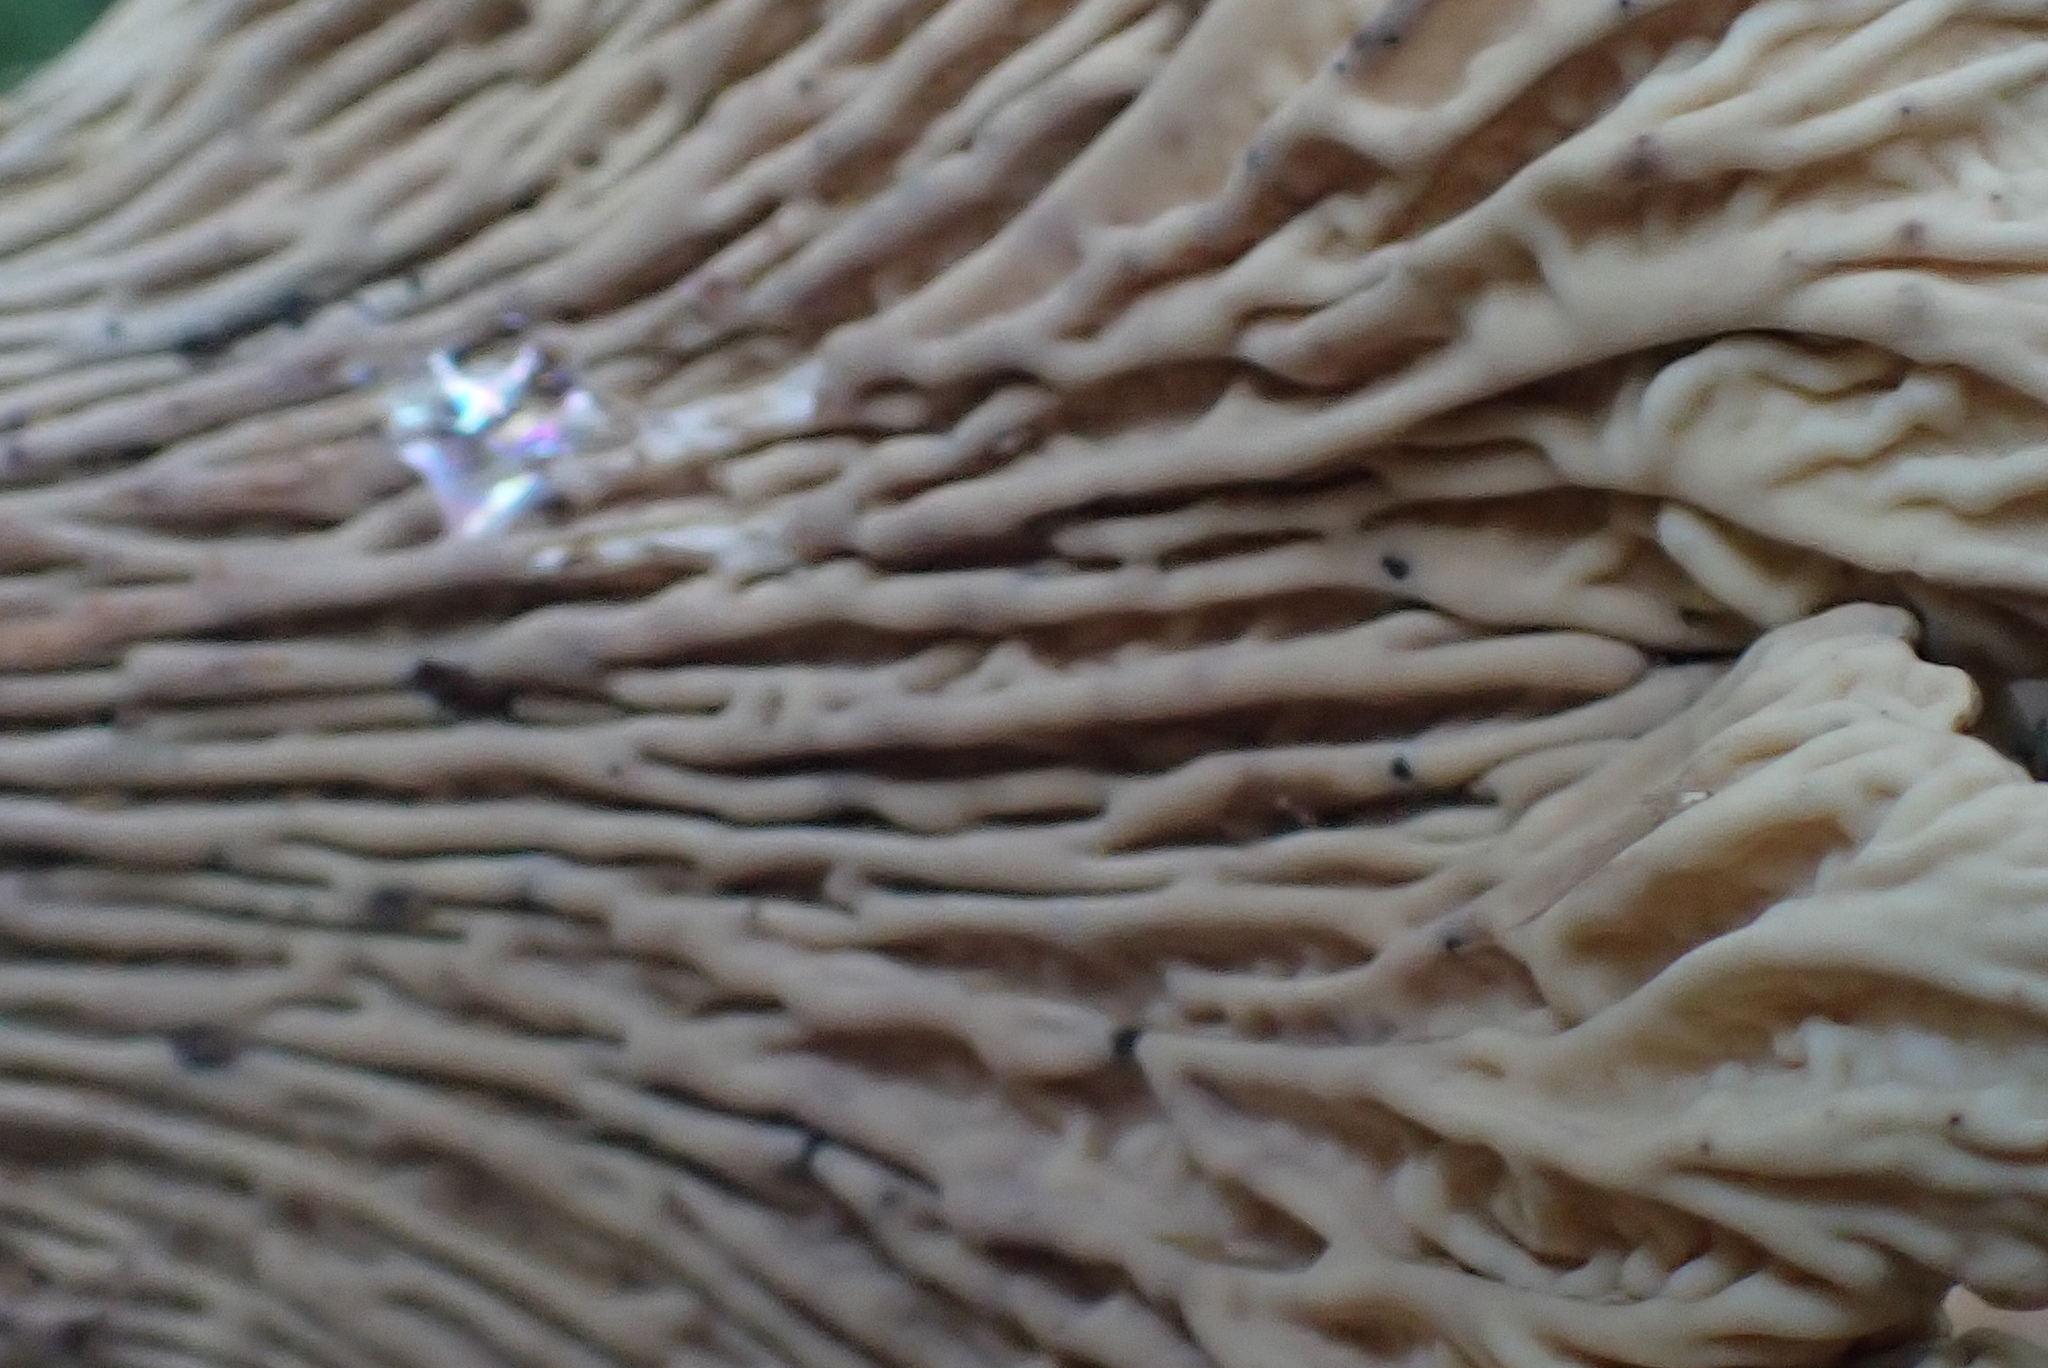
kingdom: Fungi
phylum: Basidiomycota
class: Agaricomycetes
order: Gomphales
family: Gomphaceae
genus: Turbinellus
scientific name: Turbinellus kauffmanii
